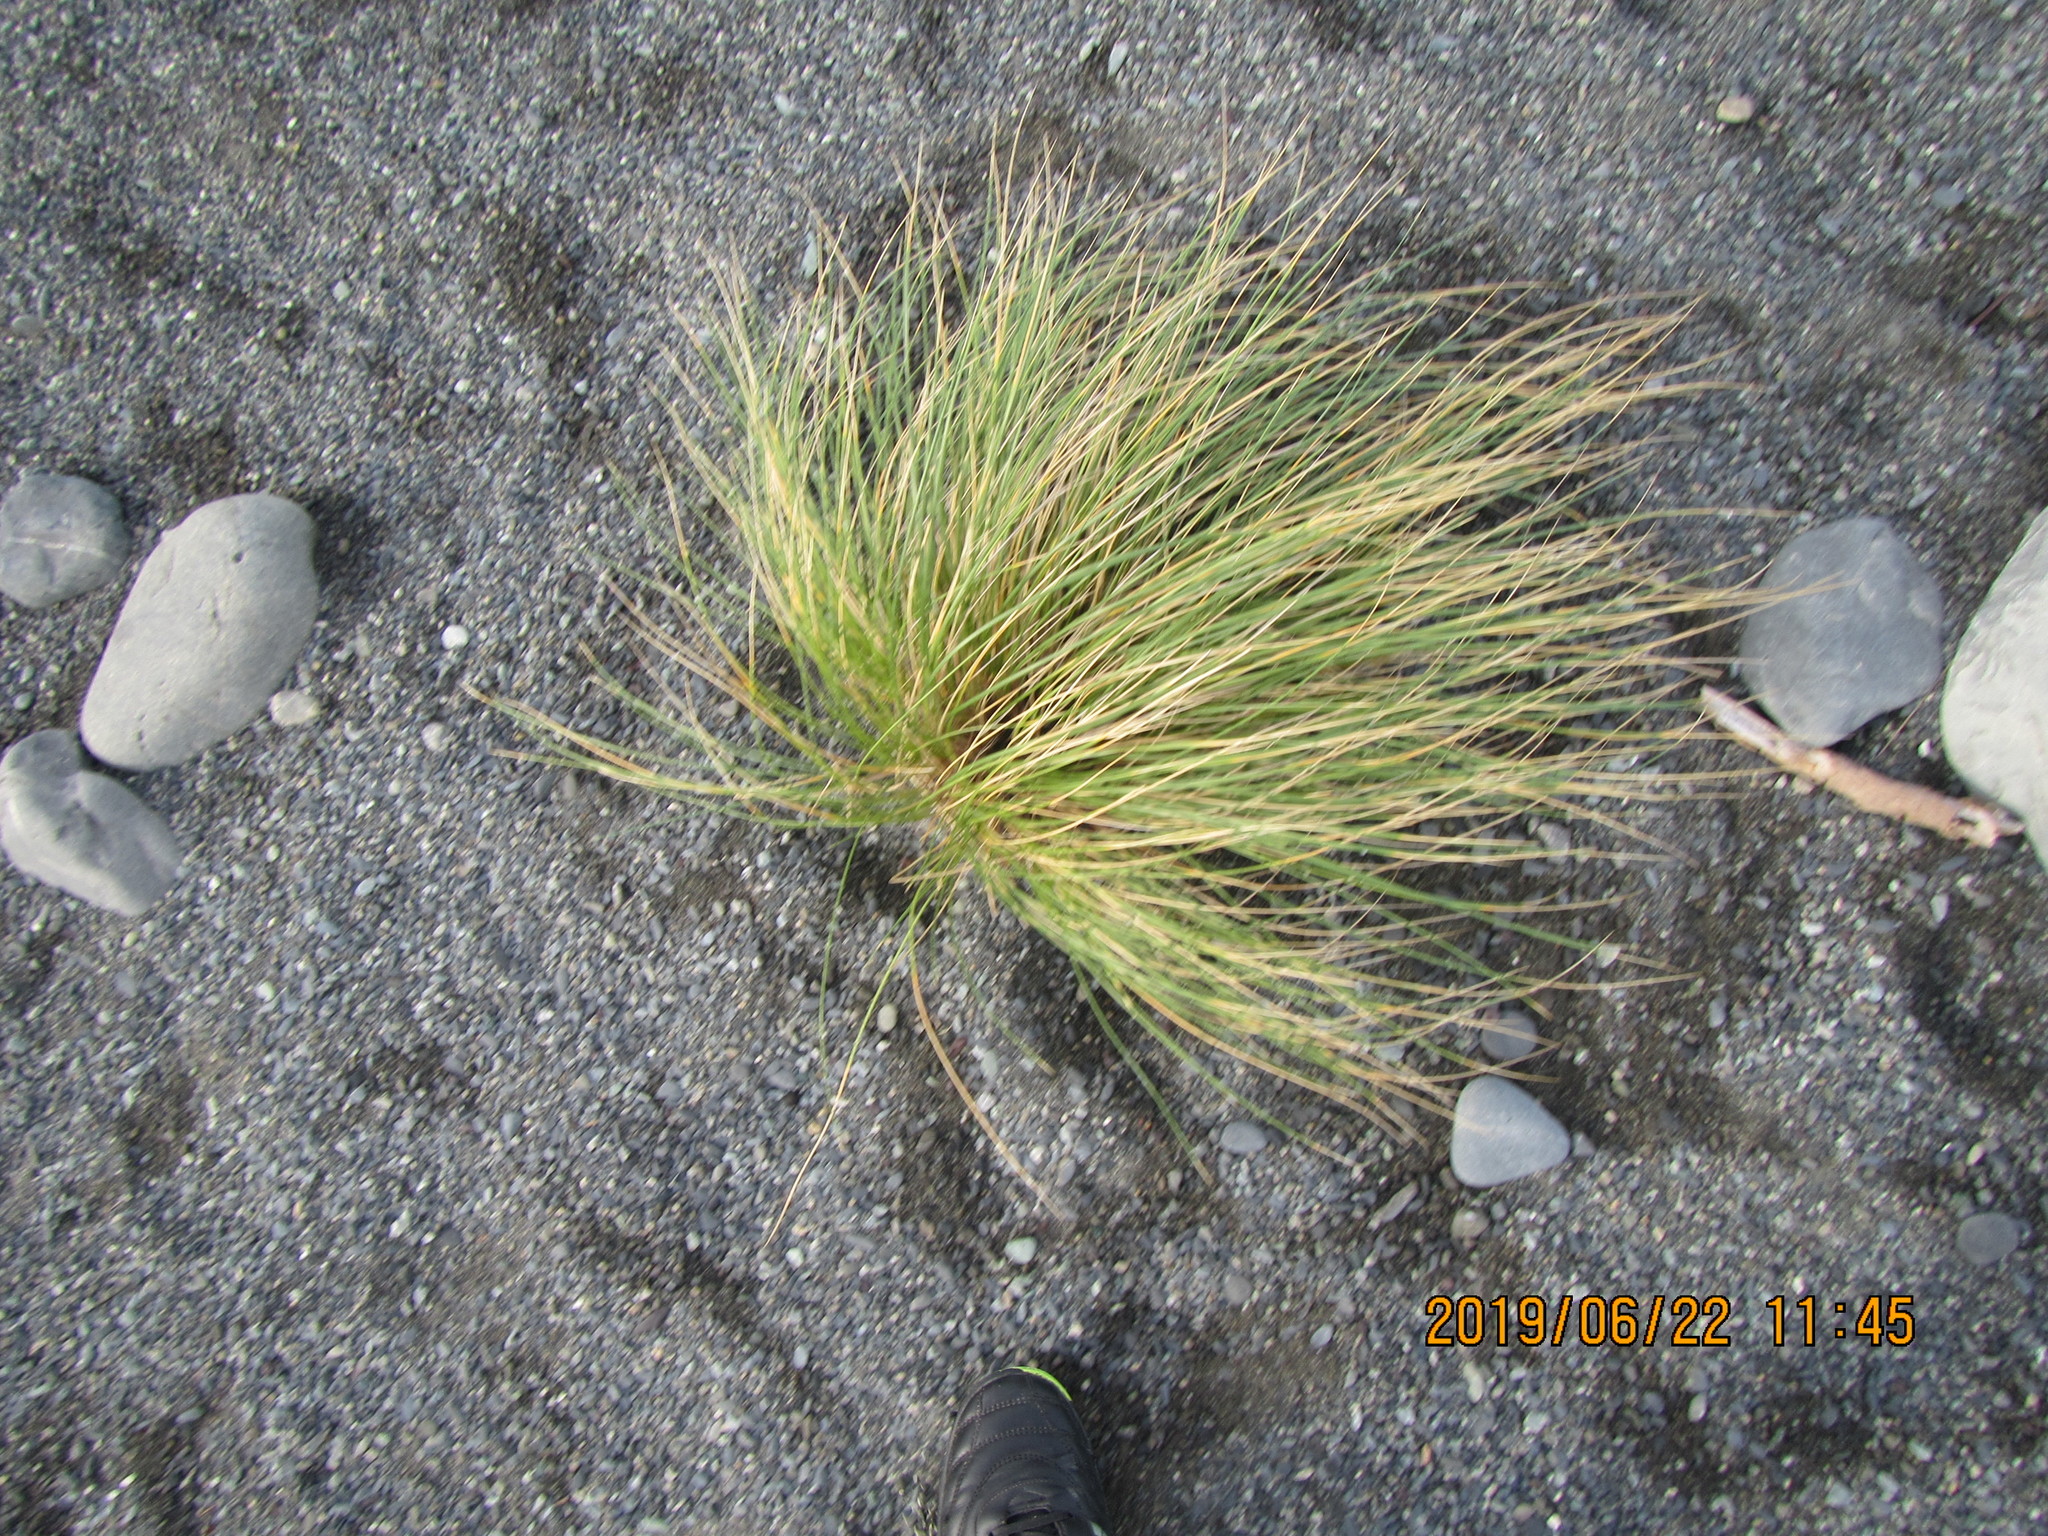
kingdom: Plantae
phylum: Tracheophyta
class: Liliopsida
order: Poales
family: Poaceae
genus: Calamagrostis
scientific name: Calamagrostis arenaria
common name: European beachgrass
